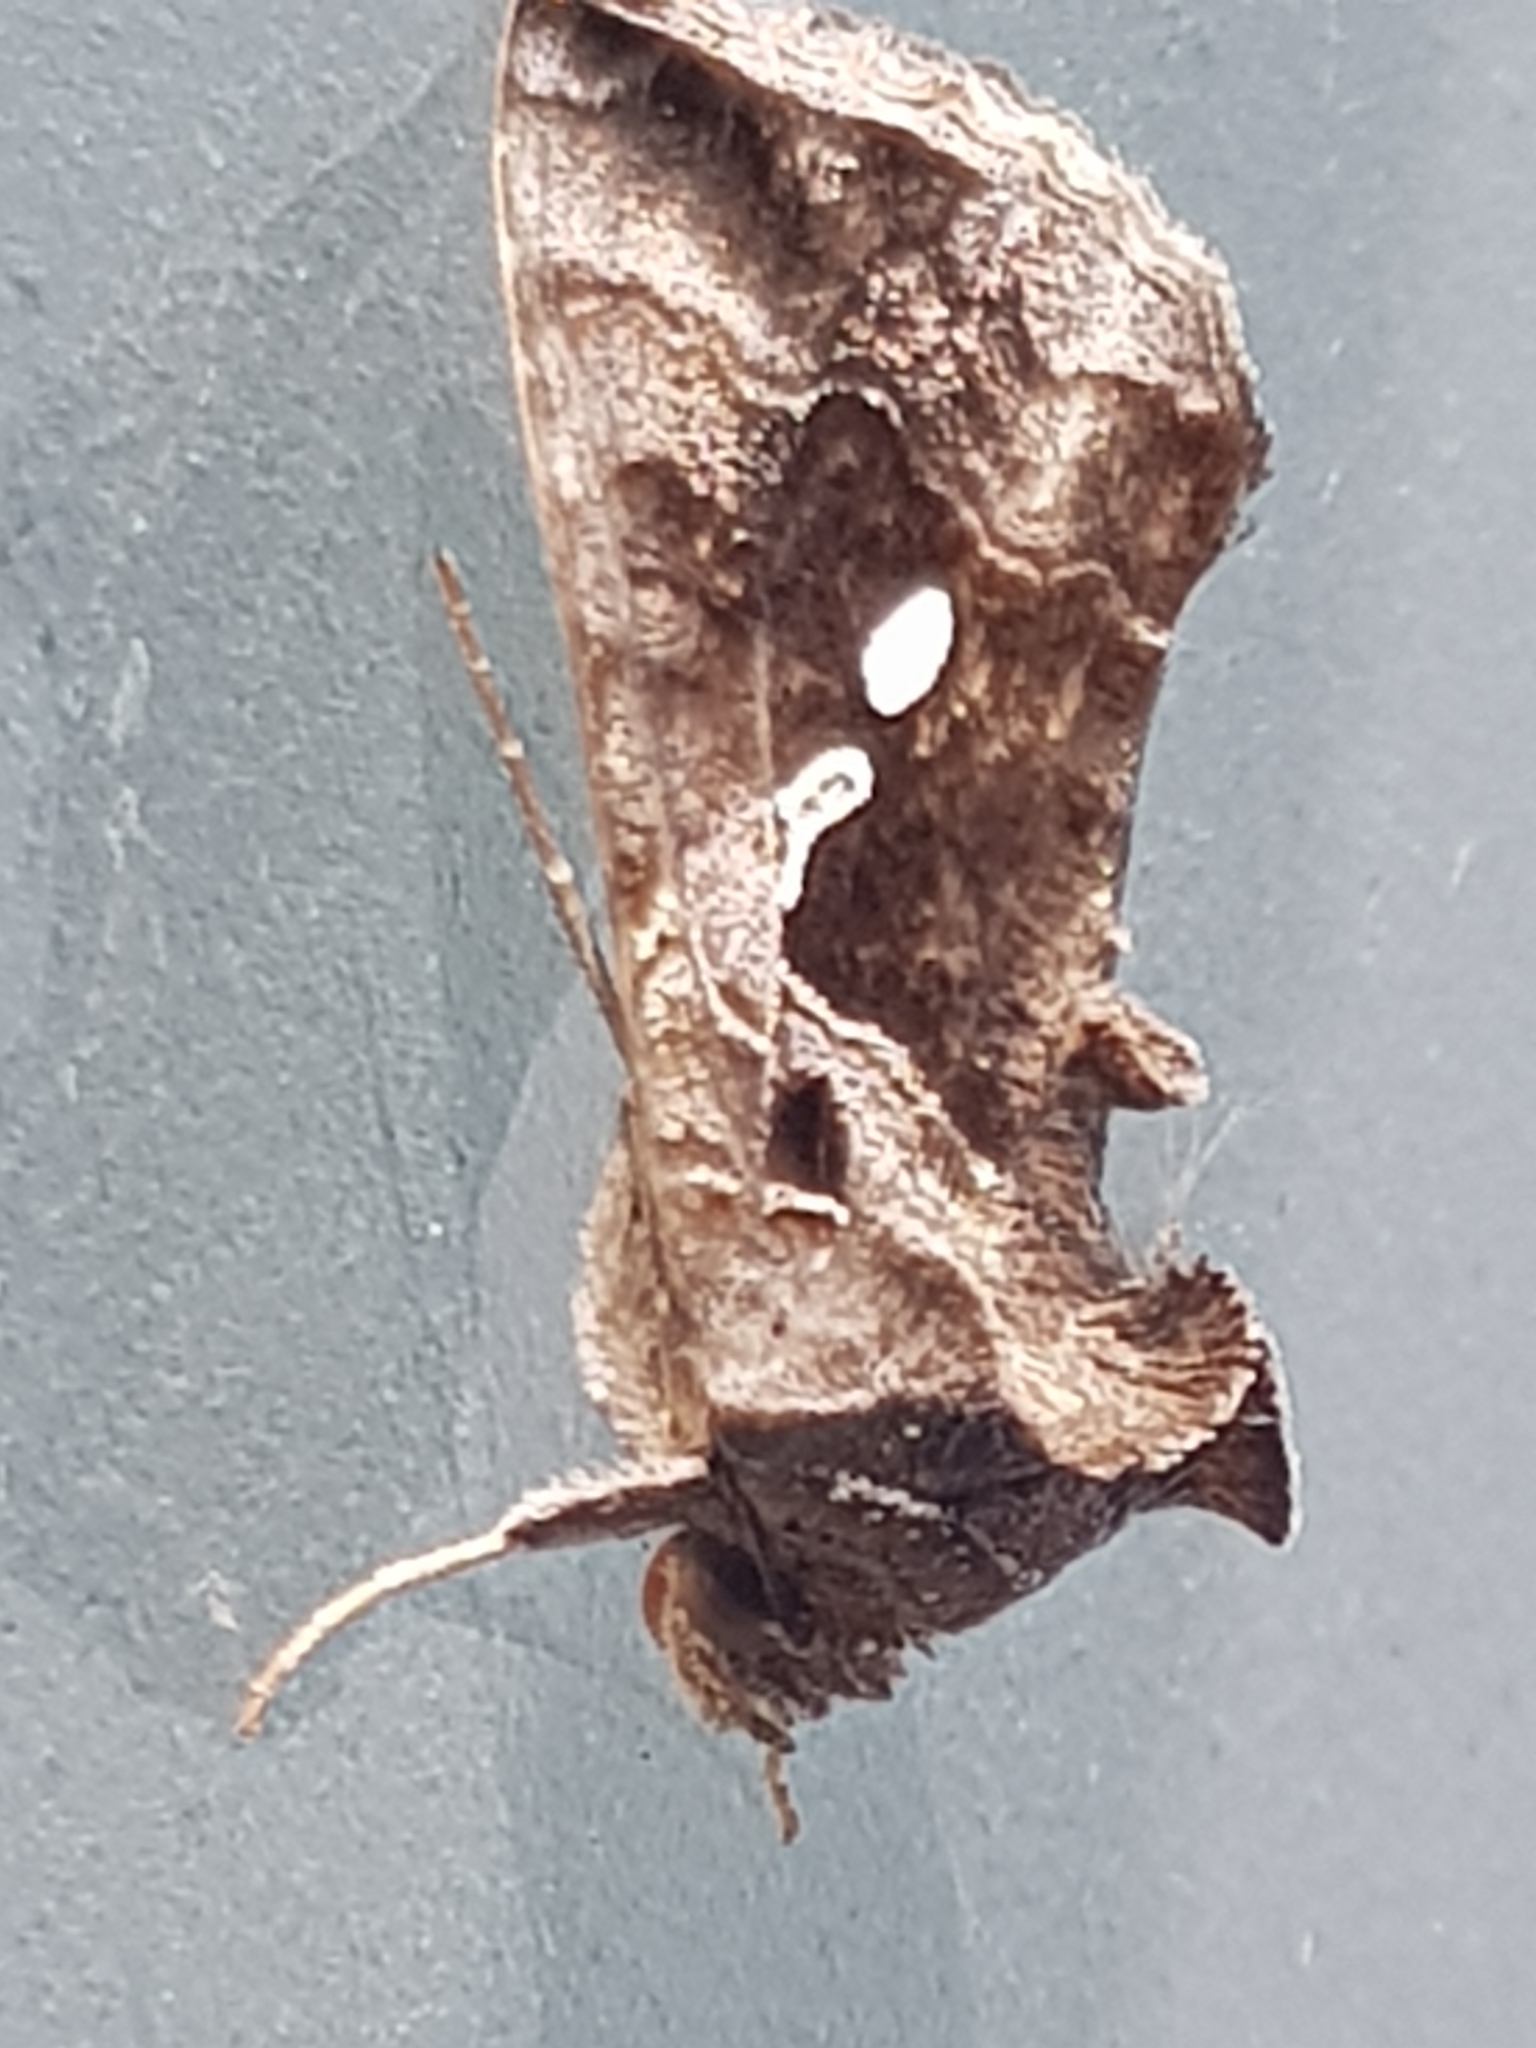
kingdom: Animalia
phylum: Arthropoda
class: Insecta
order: Lepidoptera
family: Noctuidae
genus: Chrysodeixis
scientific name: Chrysodeixis eriosoma
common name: Green garden looper
